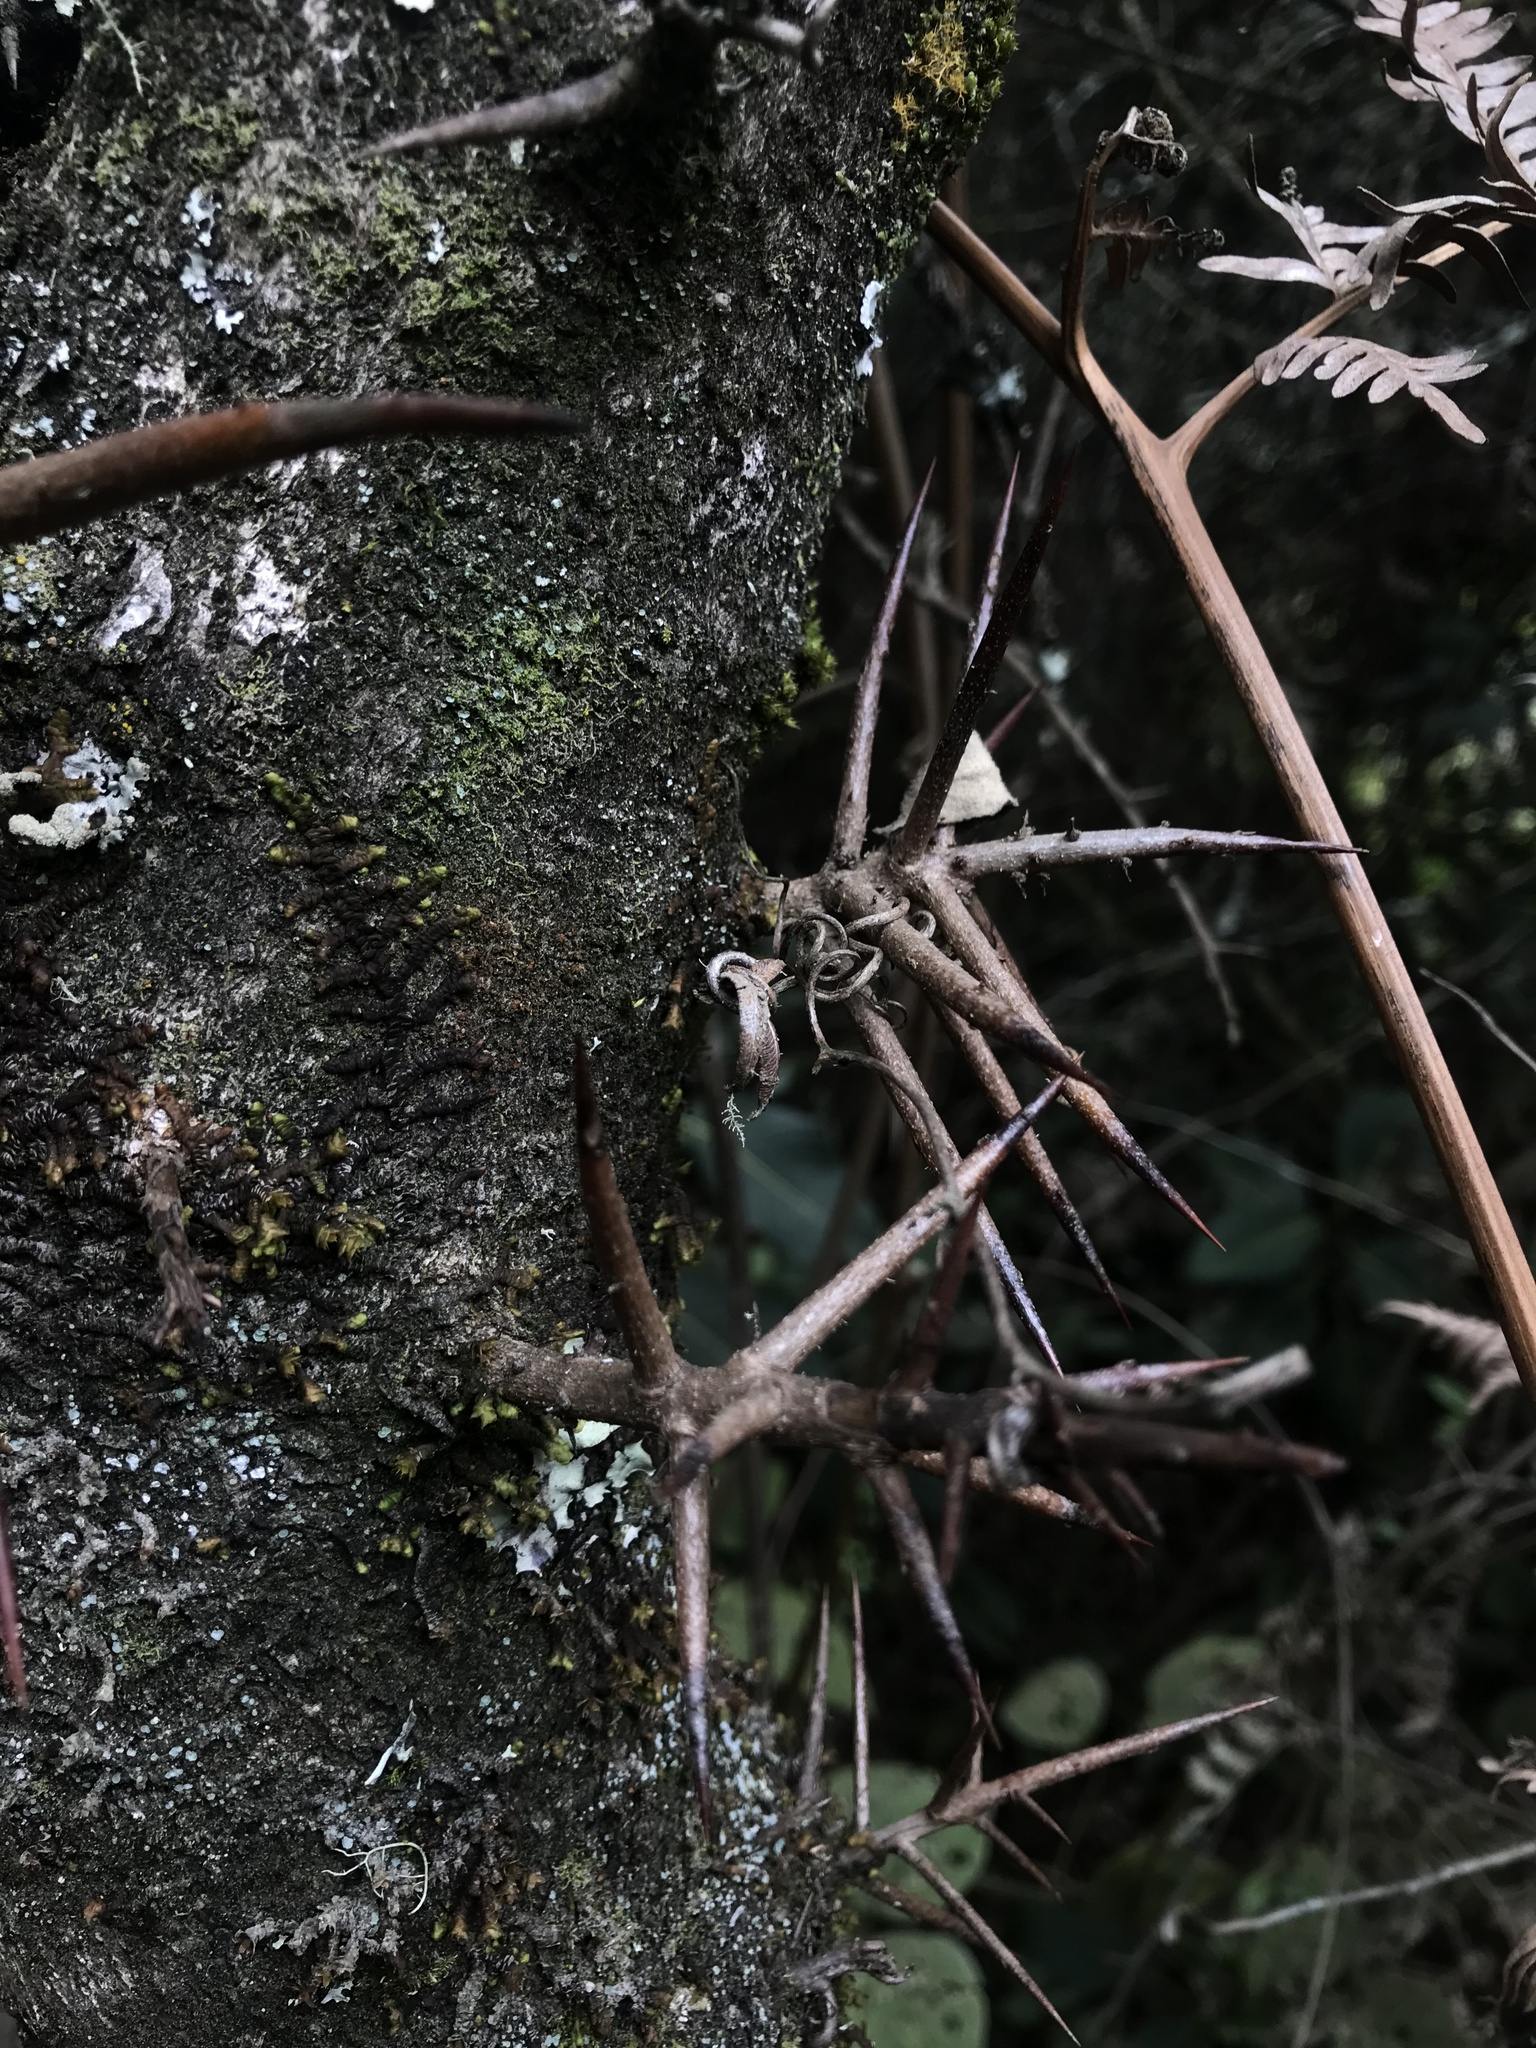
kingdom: Plantae
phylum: Tracheophyta
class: Magnoliopsida
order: Malpighiales
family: Salicaceae
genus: Xylosma
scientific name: Xylosma spiculifera
